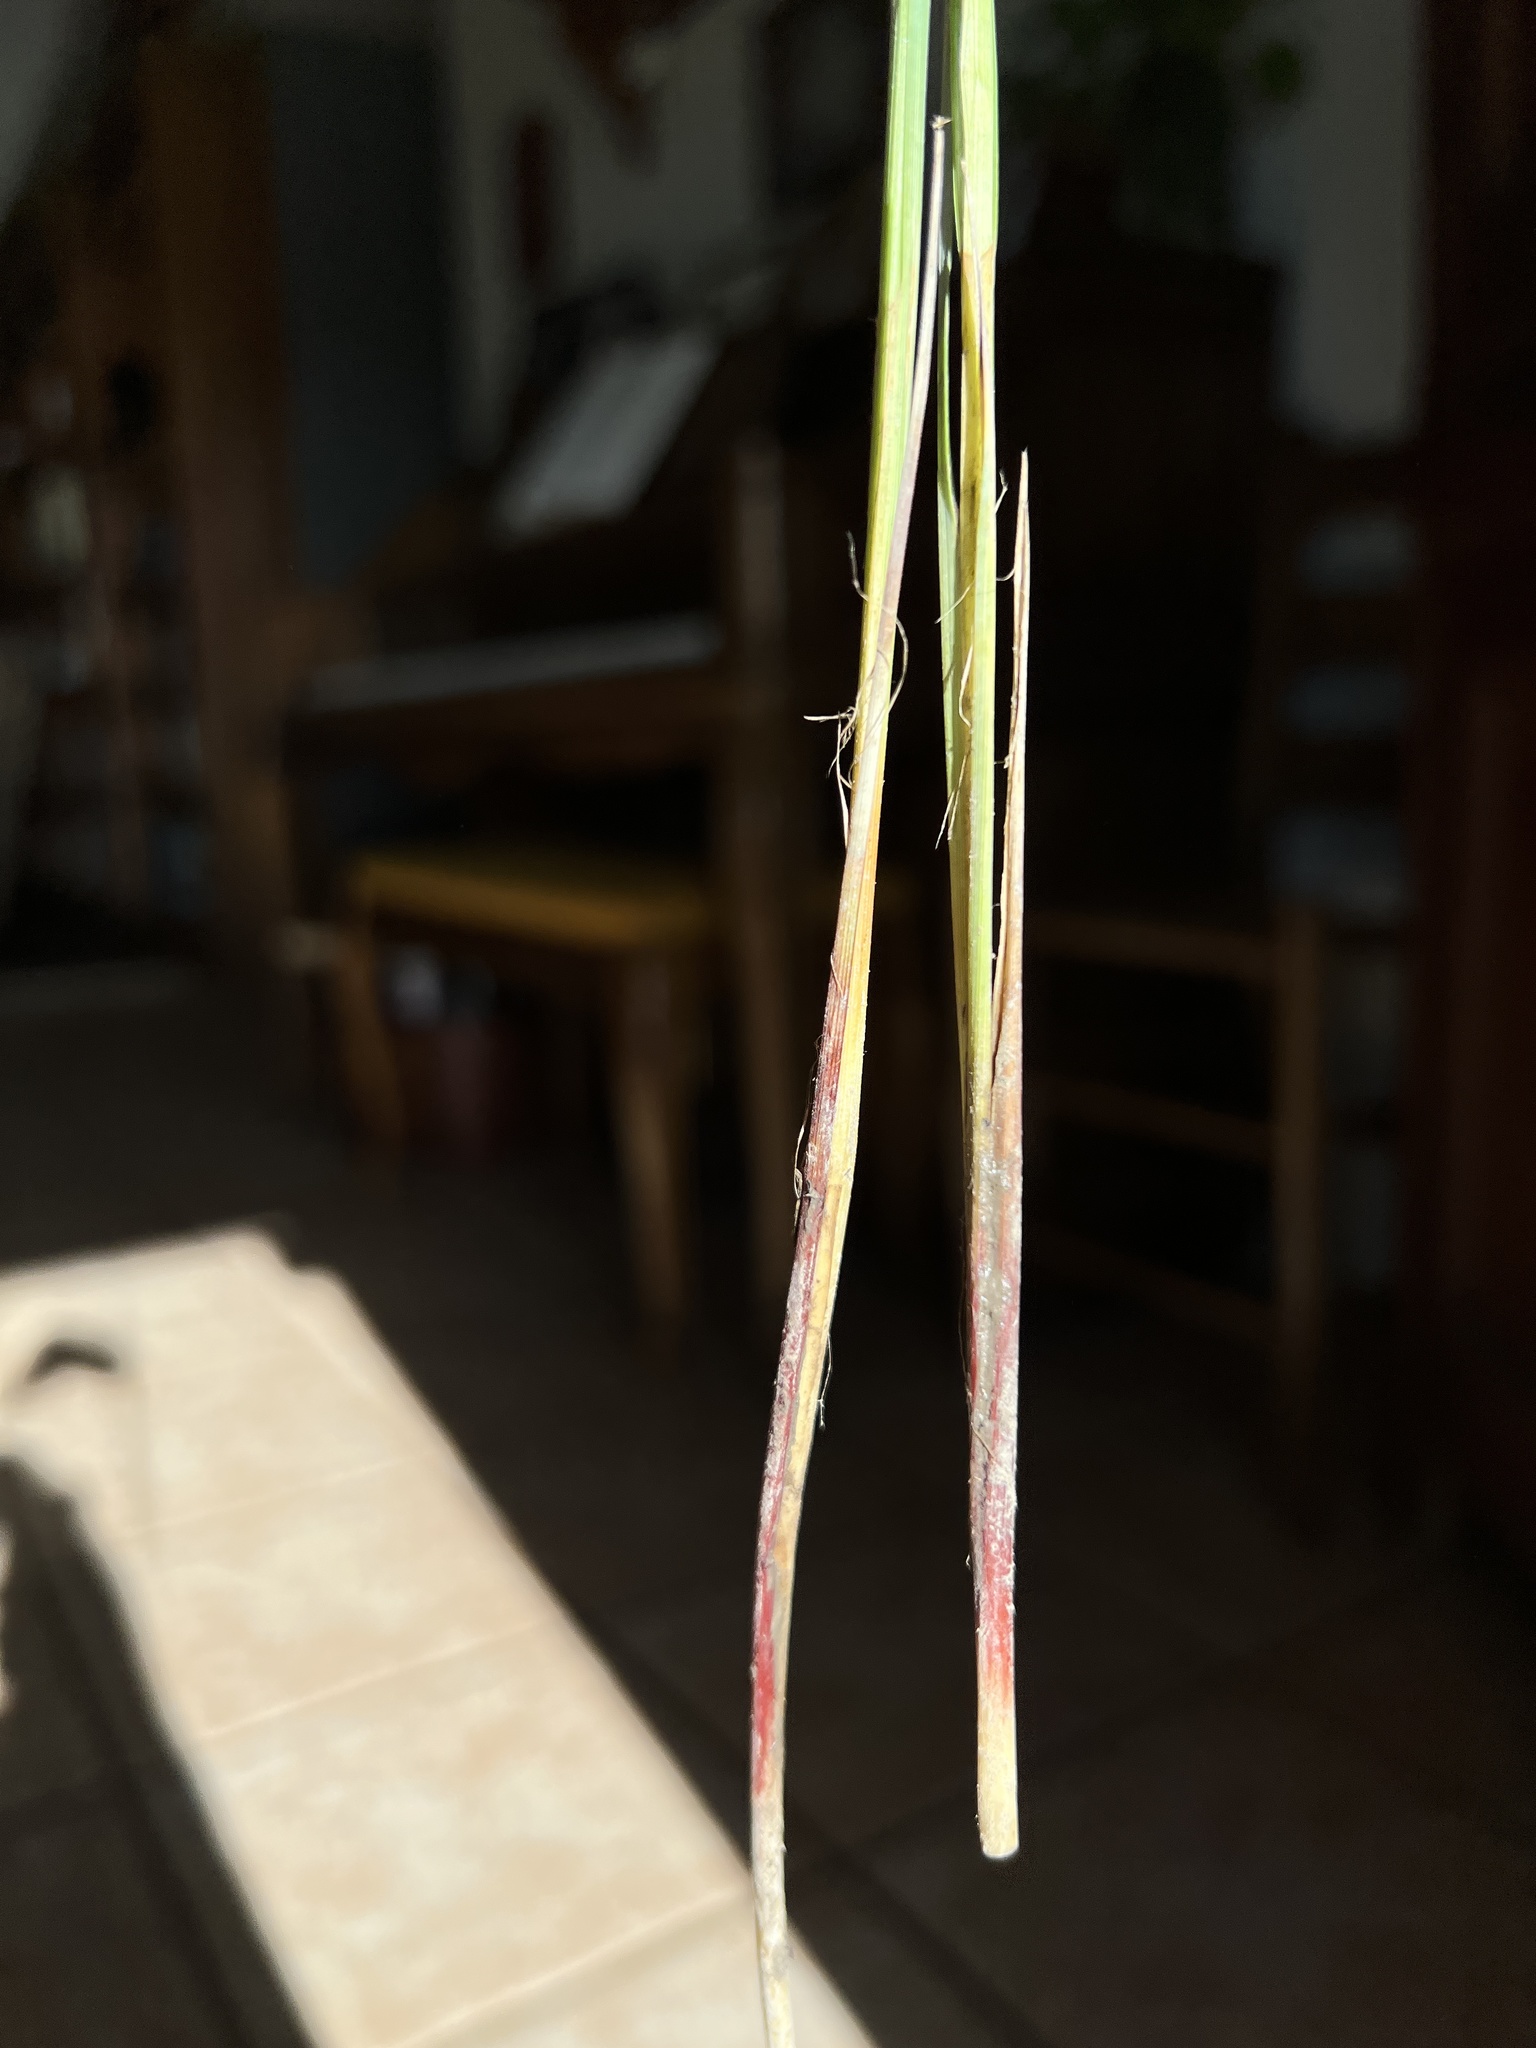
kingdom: Plantae
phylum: Tracheophyta
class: Liliopsida
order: Poales
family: Cyperaceae
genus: Carex
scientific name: Carex buxbaumii
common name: Club sedge
